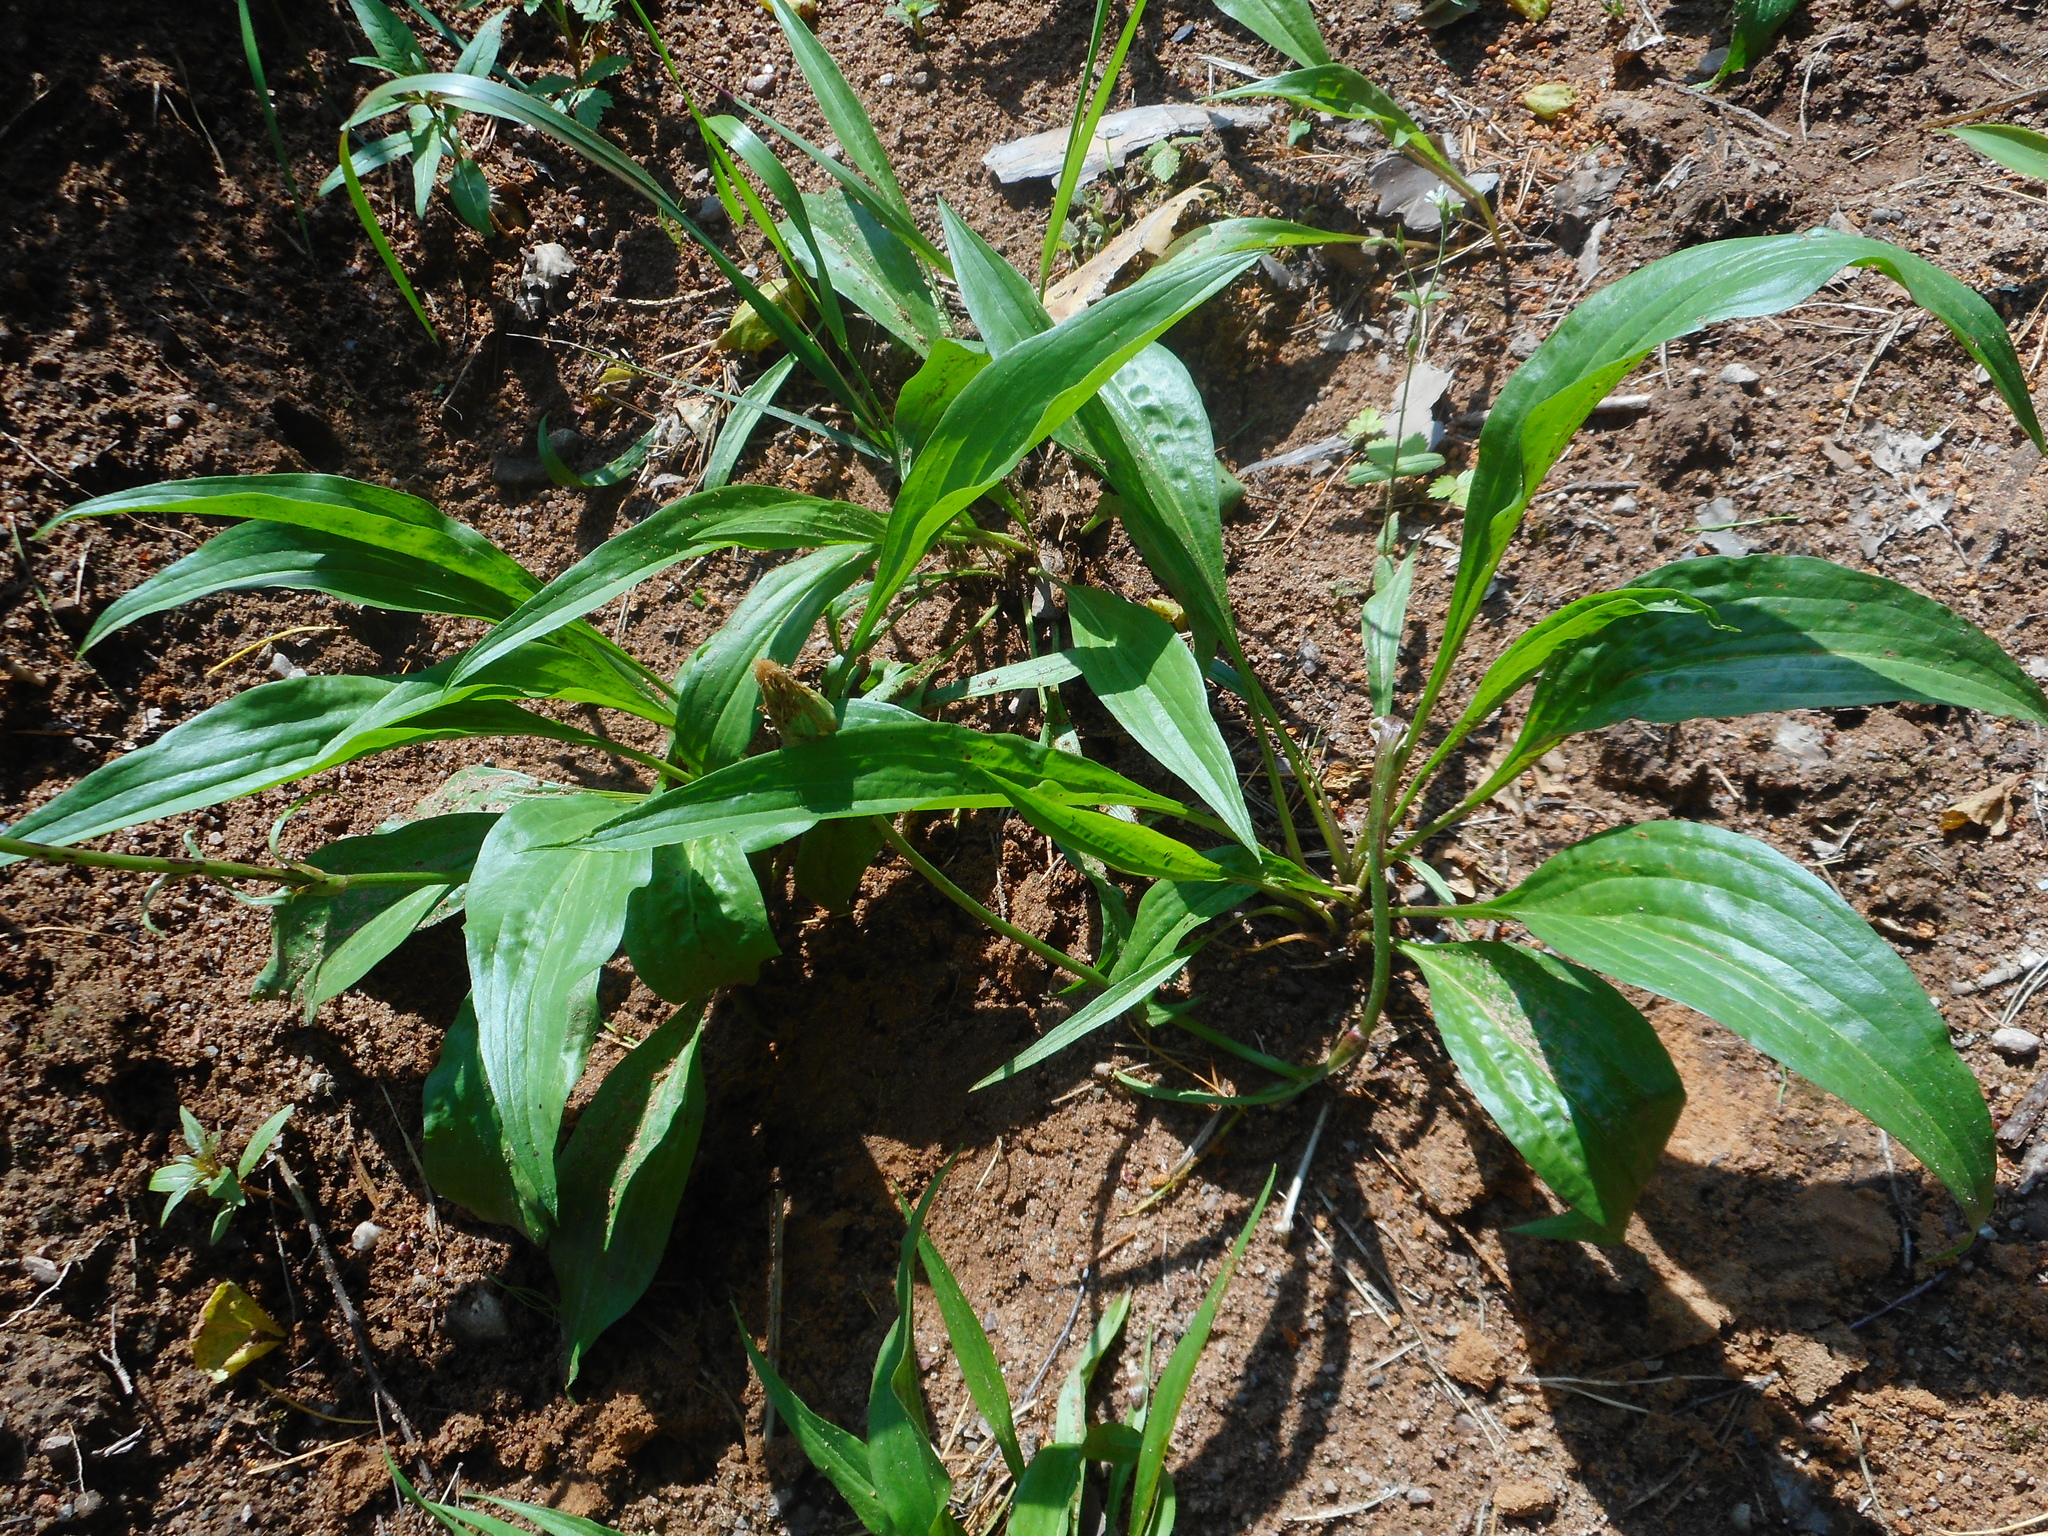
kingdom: Plantae
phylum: Tracheophyta
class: Magnoliopsida
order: Asterales
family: Asteraceae
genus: Scorzonera
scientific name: Scorzonera humilis
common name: Viper's-grass
